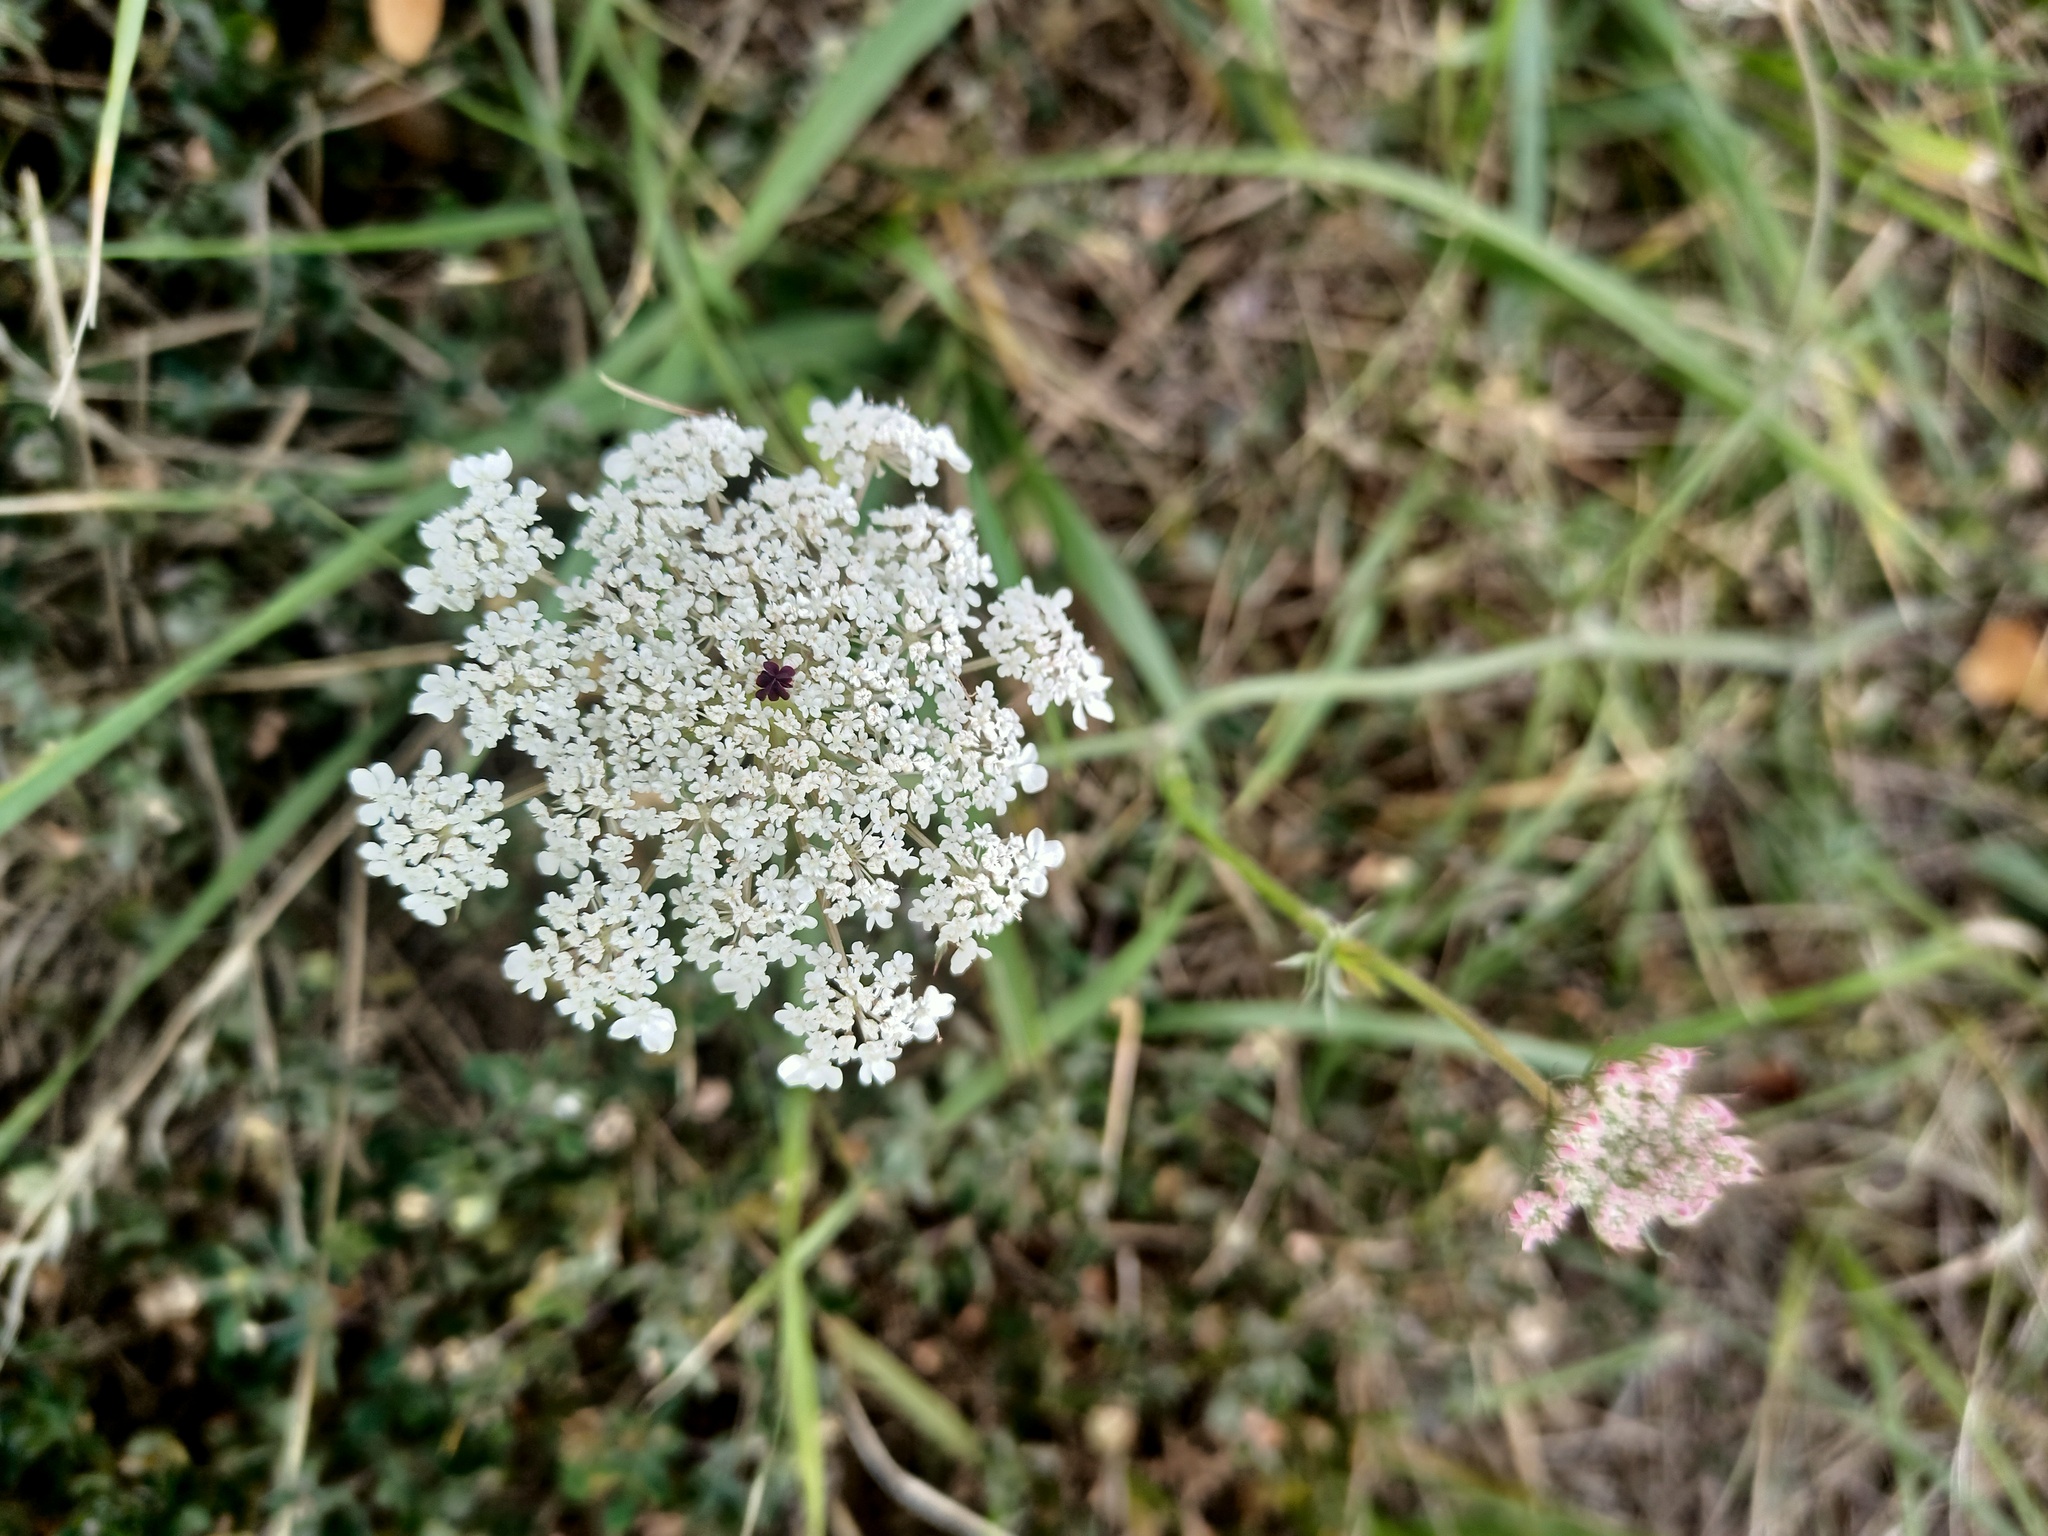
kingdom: Plantae
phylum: Tracheophyta
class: Magnoliopsida
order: Apiales
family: Apiaceae
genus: Daucus
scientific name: Daucus carota
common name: Wild carrot
